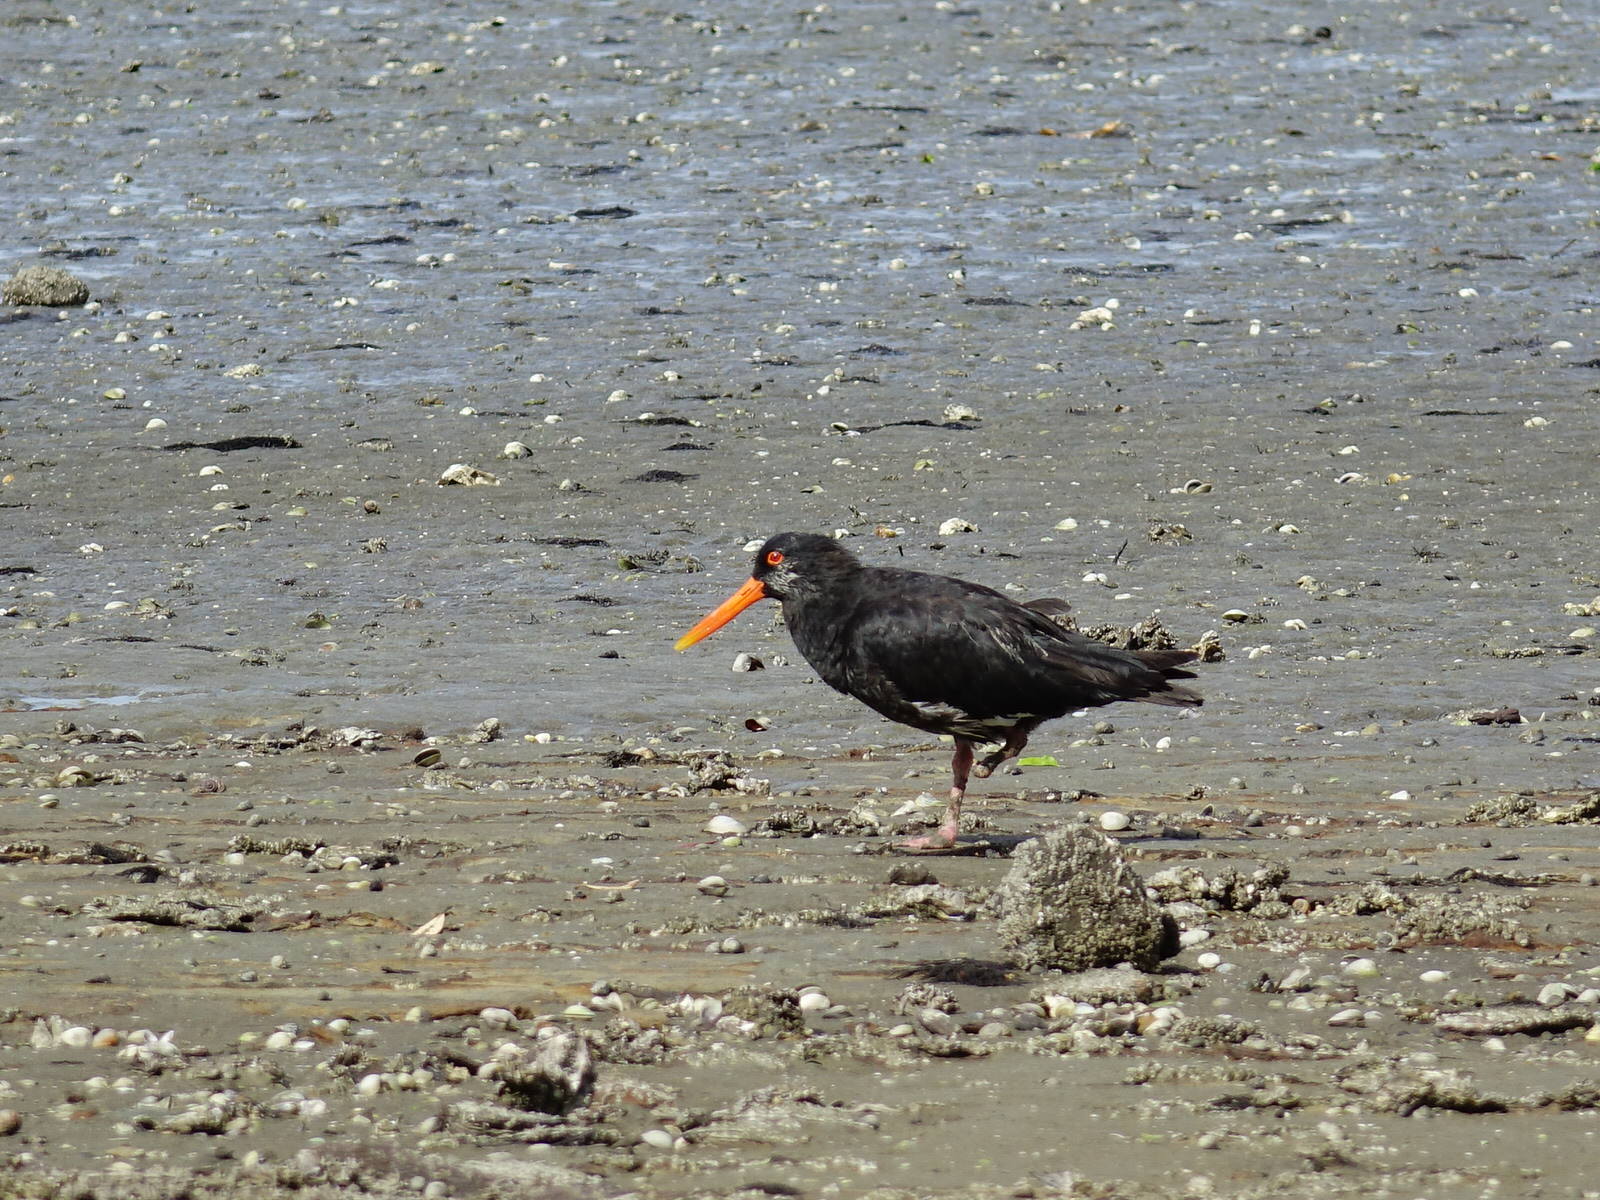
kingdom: Animalia
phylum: Chordata
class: Aves
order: Charadriiformes
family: Haematopodidae
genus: Haematopus
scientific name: Haematopus unicolor
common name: Variable oystercatcher
